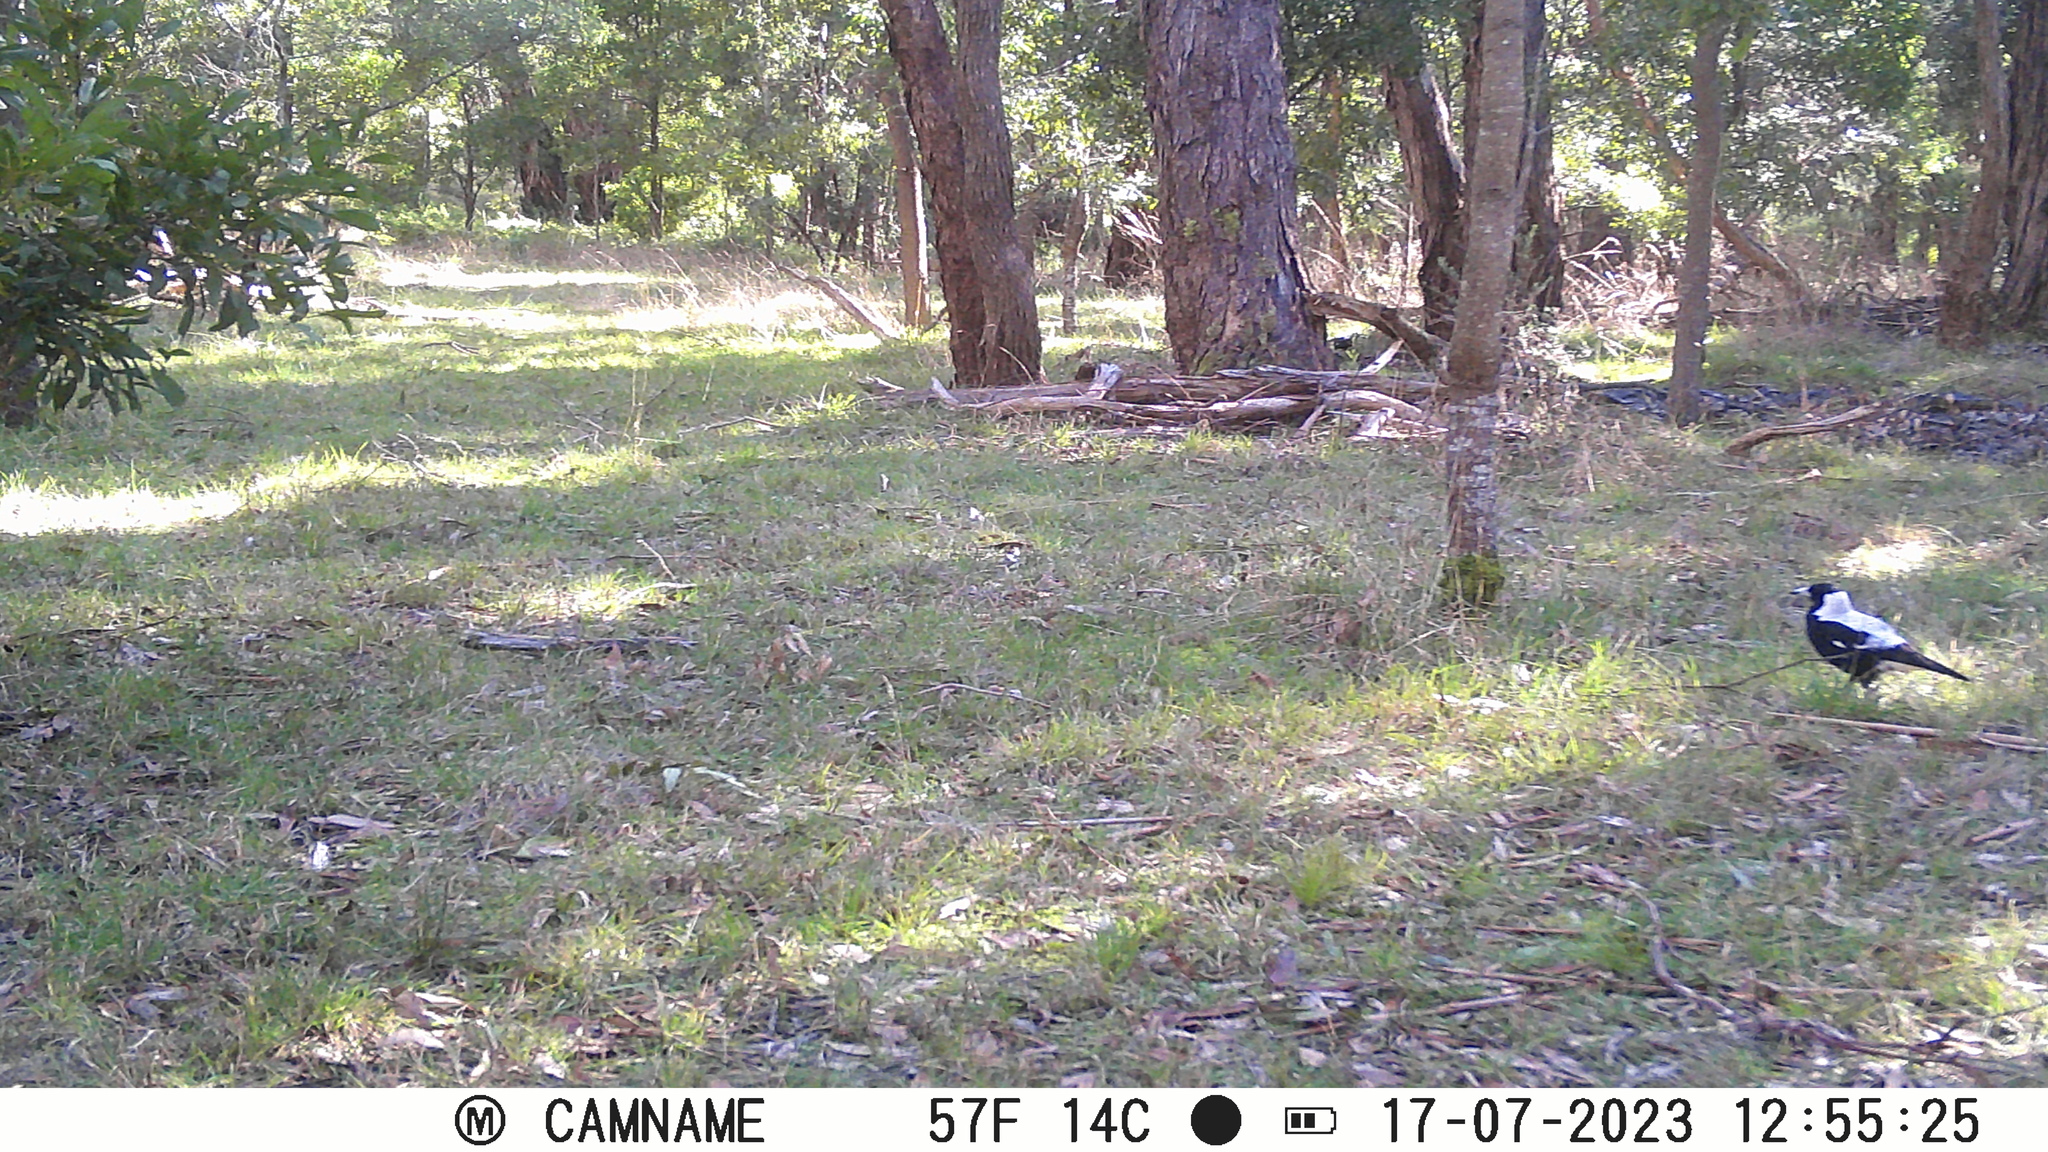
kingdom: Animalia
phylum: Chordata
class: Aves
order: Passeriformes
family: Cracticidae
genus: Gymnorhina
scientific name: Gymnorhina tibicen
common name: Australian magpie
